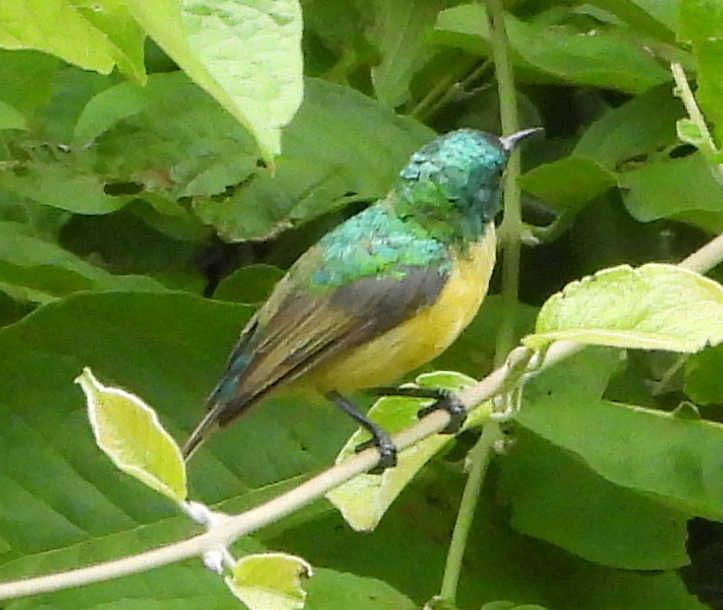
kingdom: Animalia
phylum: Chordata
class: Aves
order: Passeriformes
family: Nectariniidae
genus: Hedydipna
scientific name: Hedydipna collaris
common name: Collared sunbird
